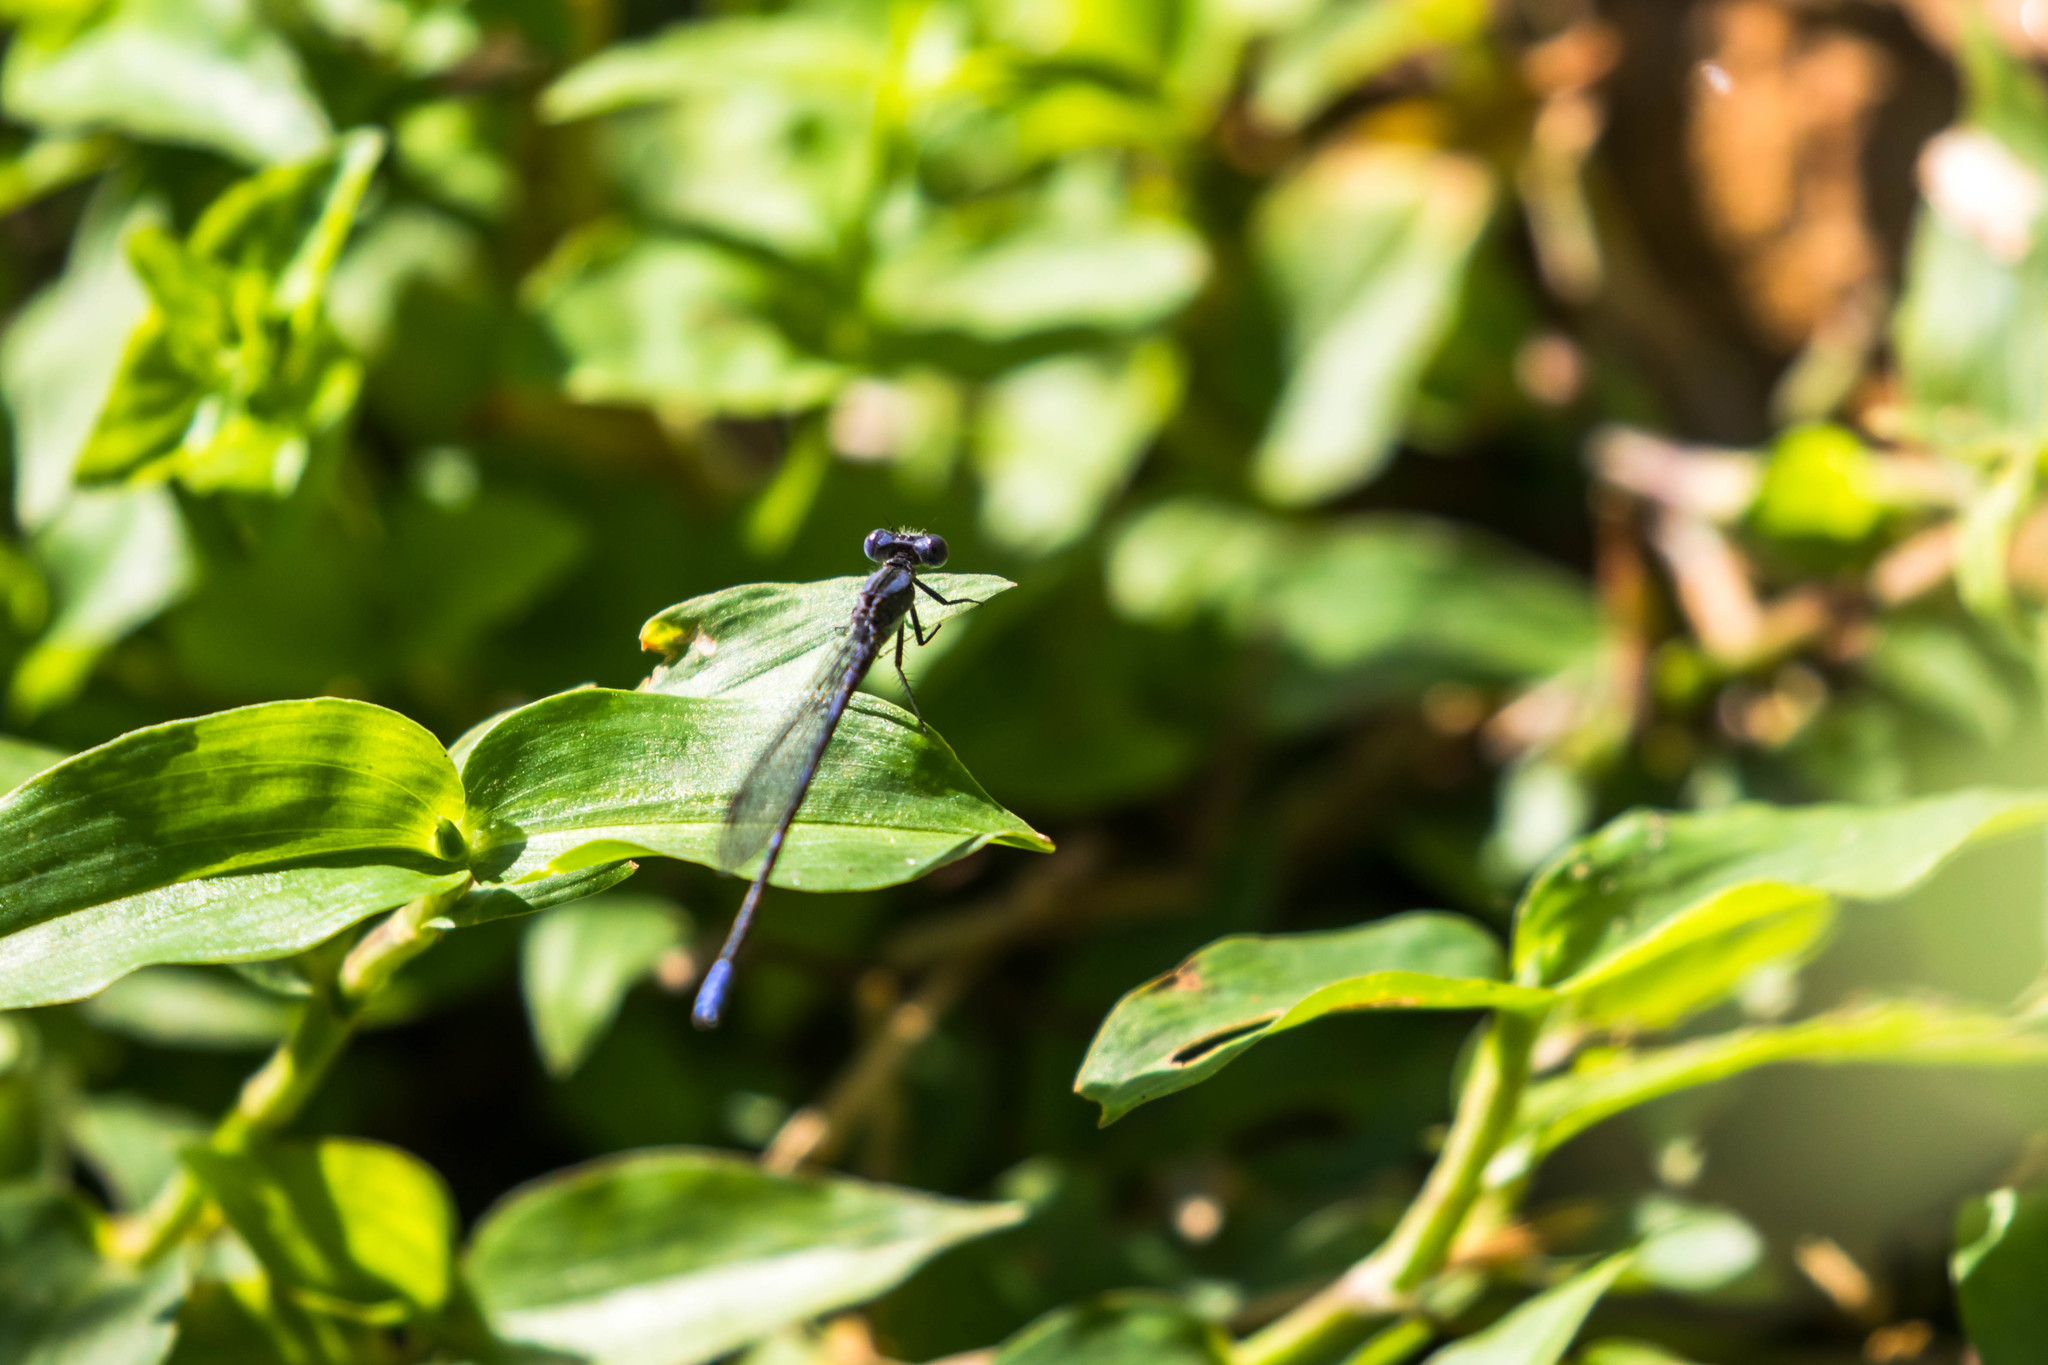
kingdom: Animalia
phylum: Arthropoda
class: Insecta
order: Odonata
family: Coenagrionidae
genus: Argia
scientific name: Argia immunda
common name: Kiowa dancer
